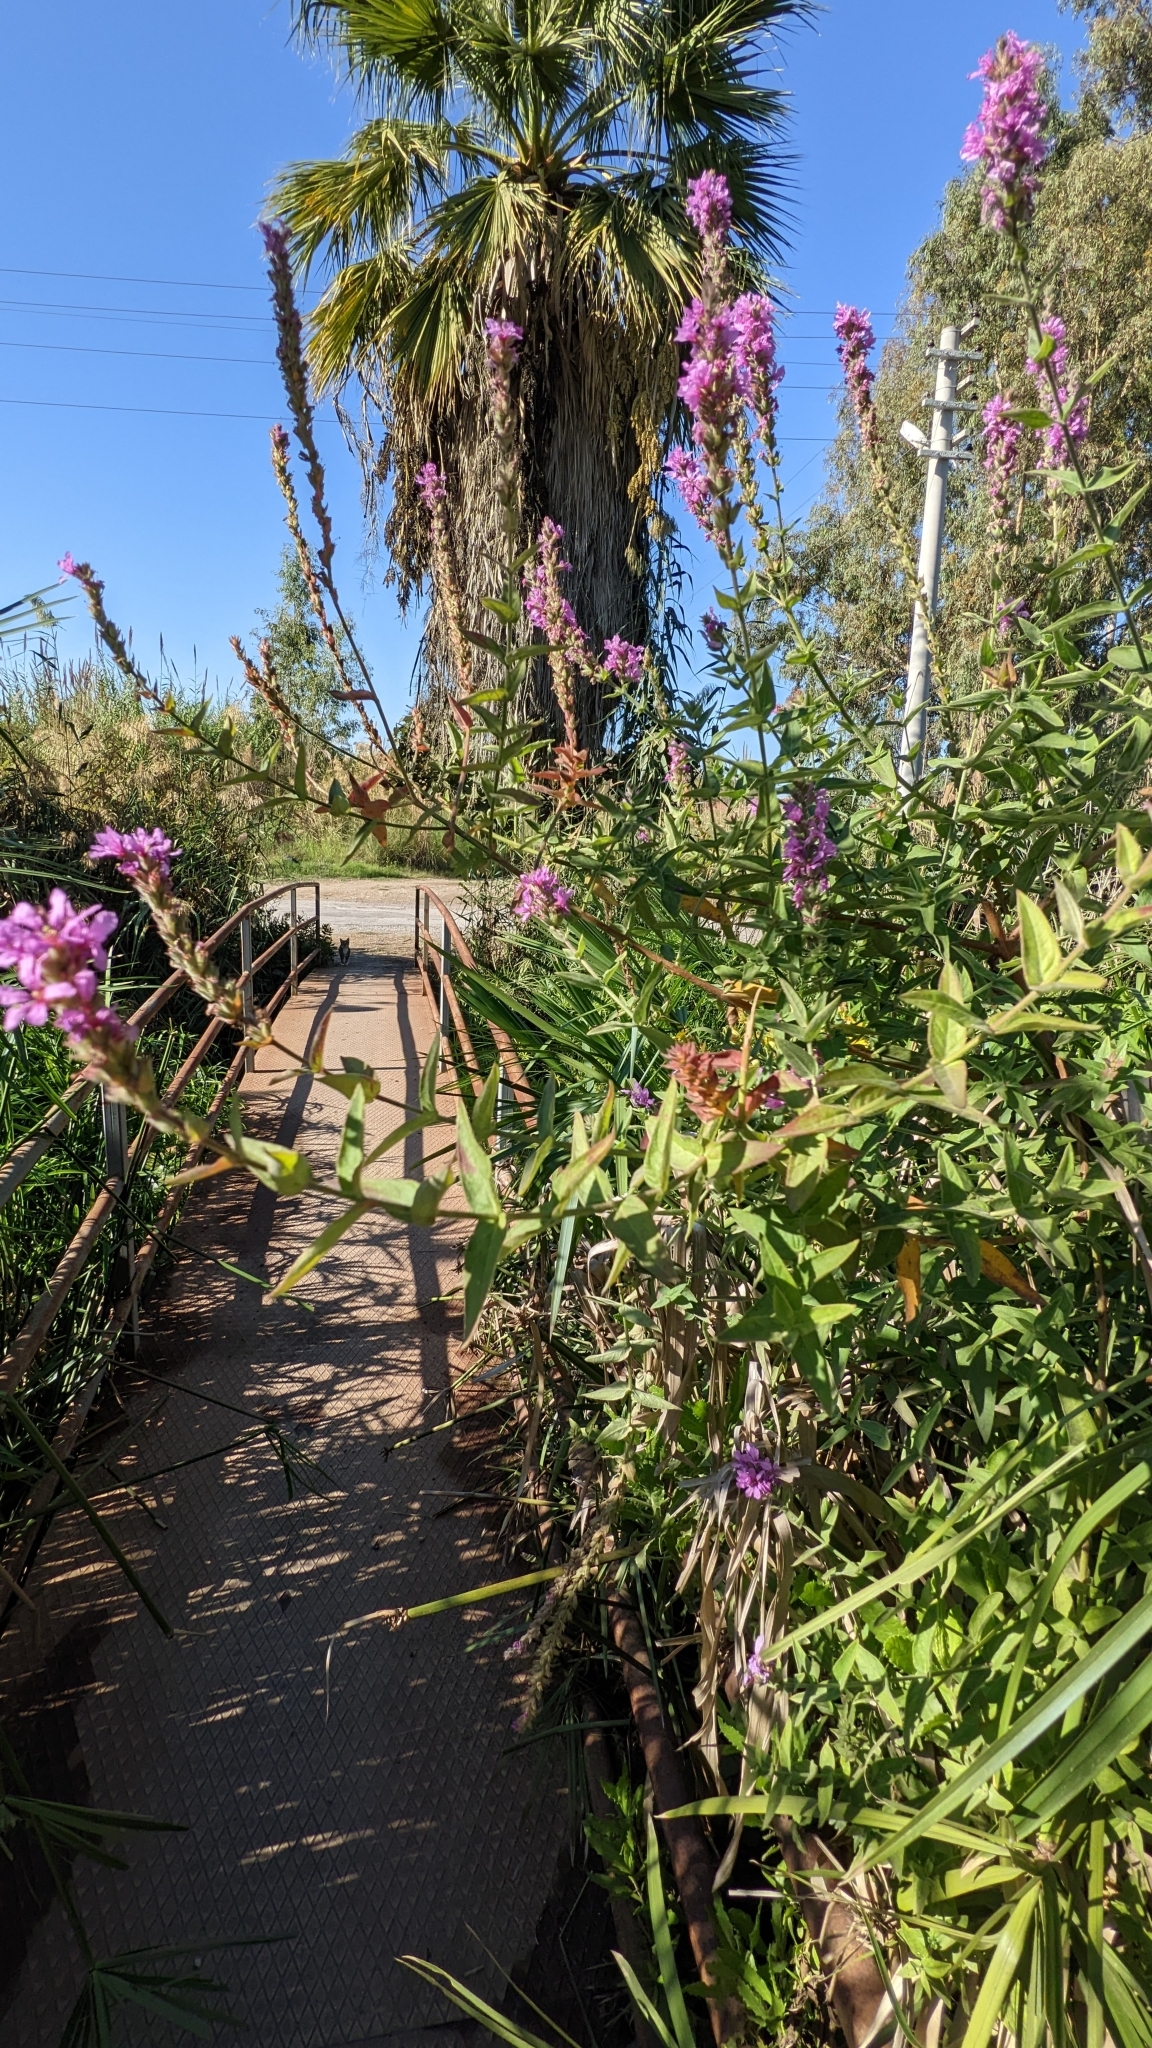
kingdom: Plantae
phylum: Tracheophyta
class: Magnoliopsida
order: Myrtales
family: Lythraceae
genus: Lythrum
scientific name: Lythrum salicaria
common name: Purple loosestrife
